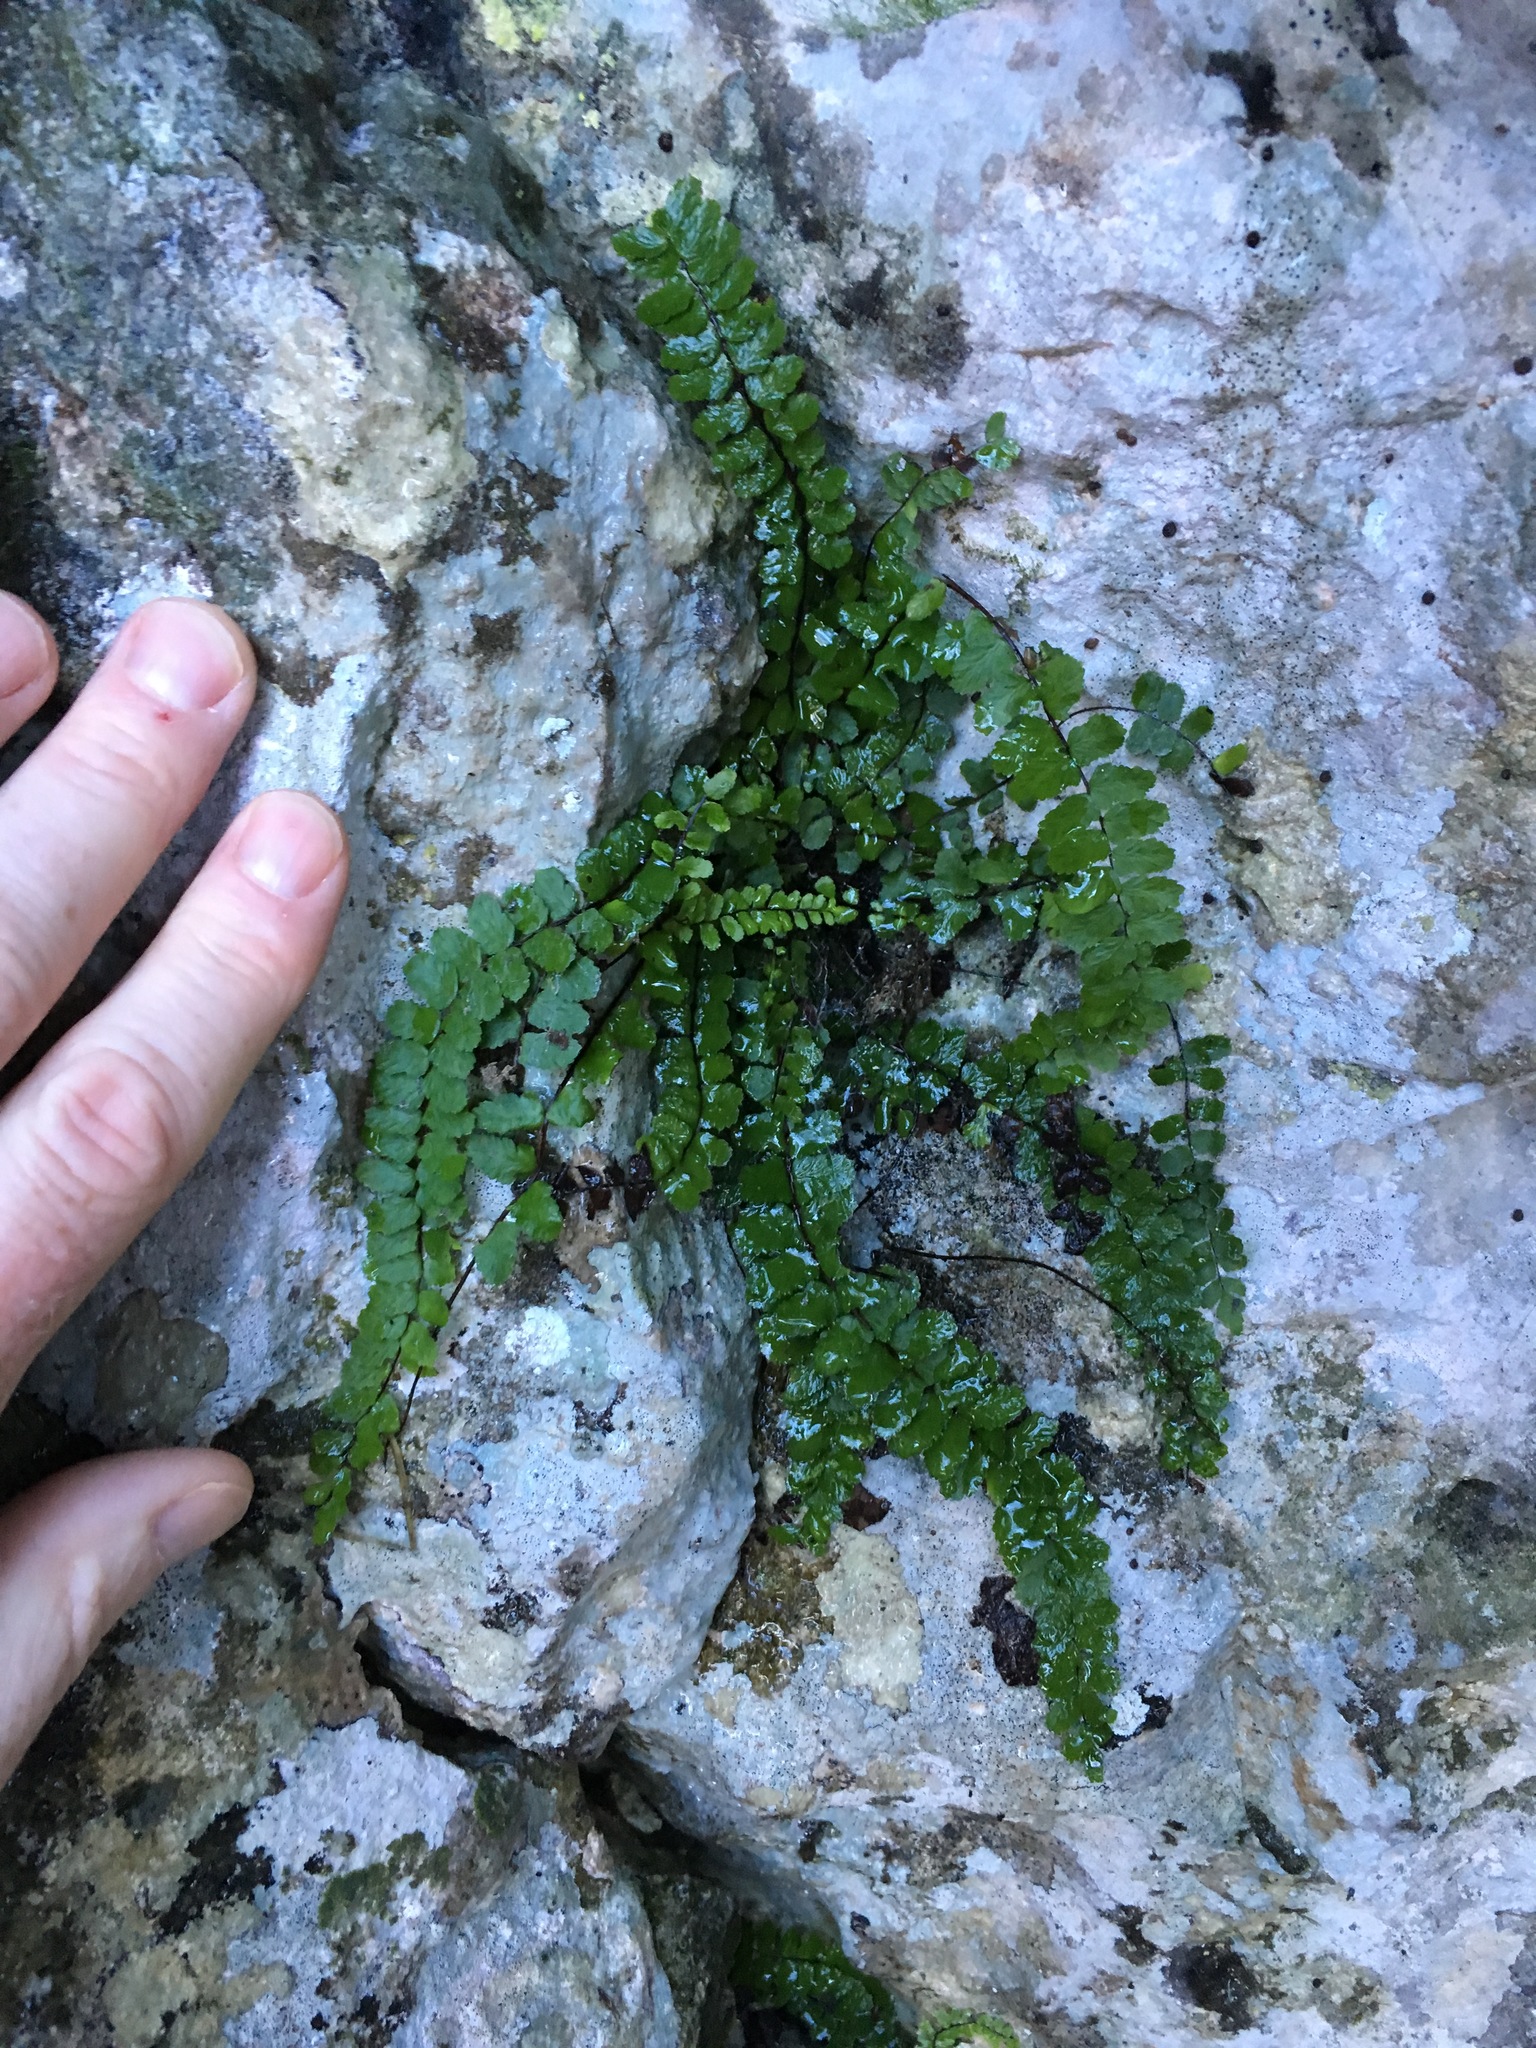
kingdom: Plantae
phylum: Tracheophyta
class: Polypodiopsida
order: Polypodiales
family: Aspleniaceae
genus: Asplenium
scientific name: Asplenium trichomanes
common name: Maidenhair spleenwort
